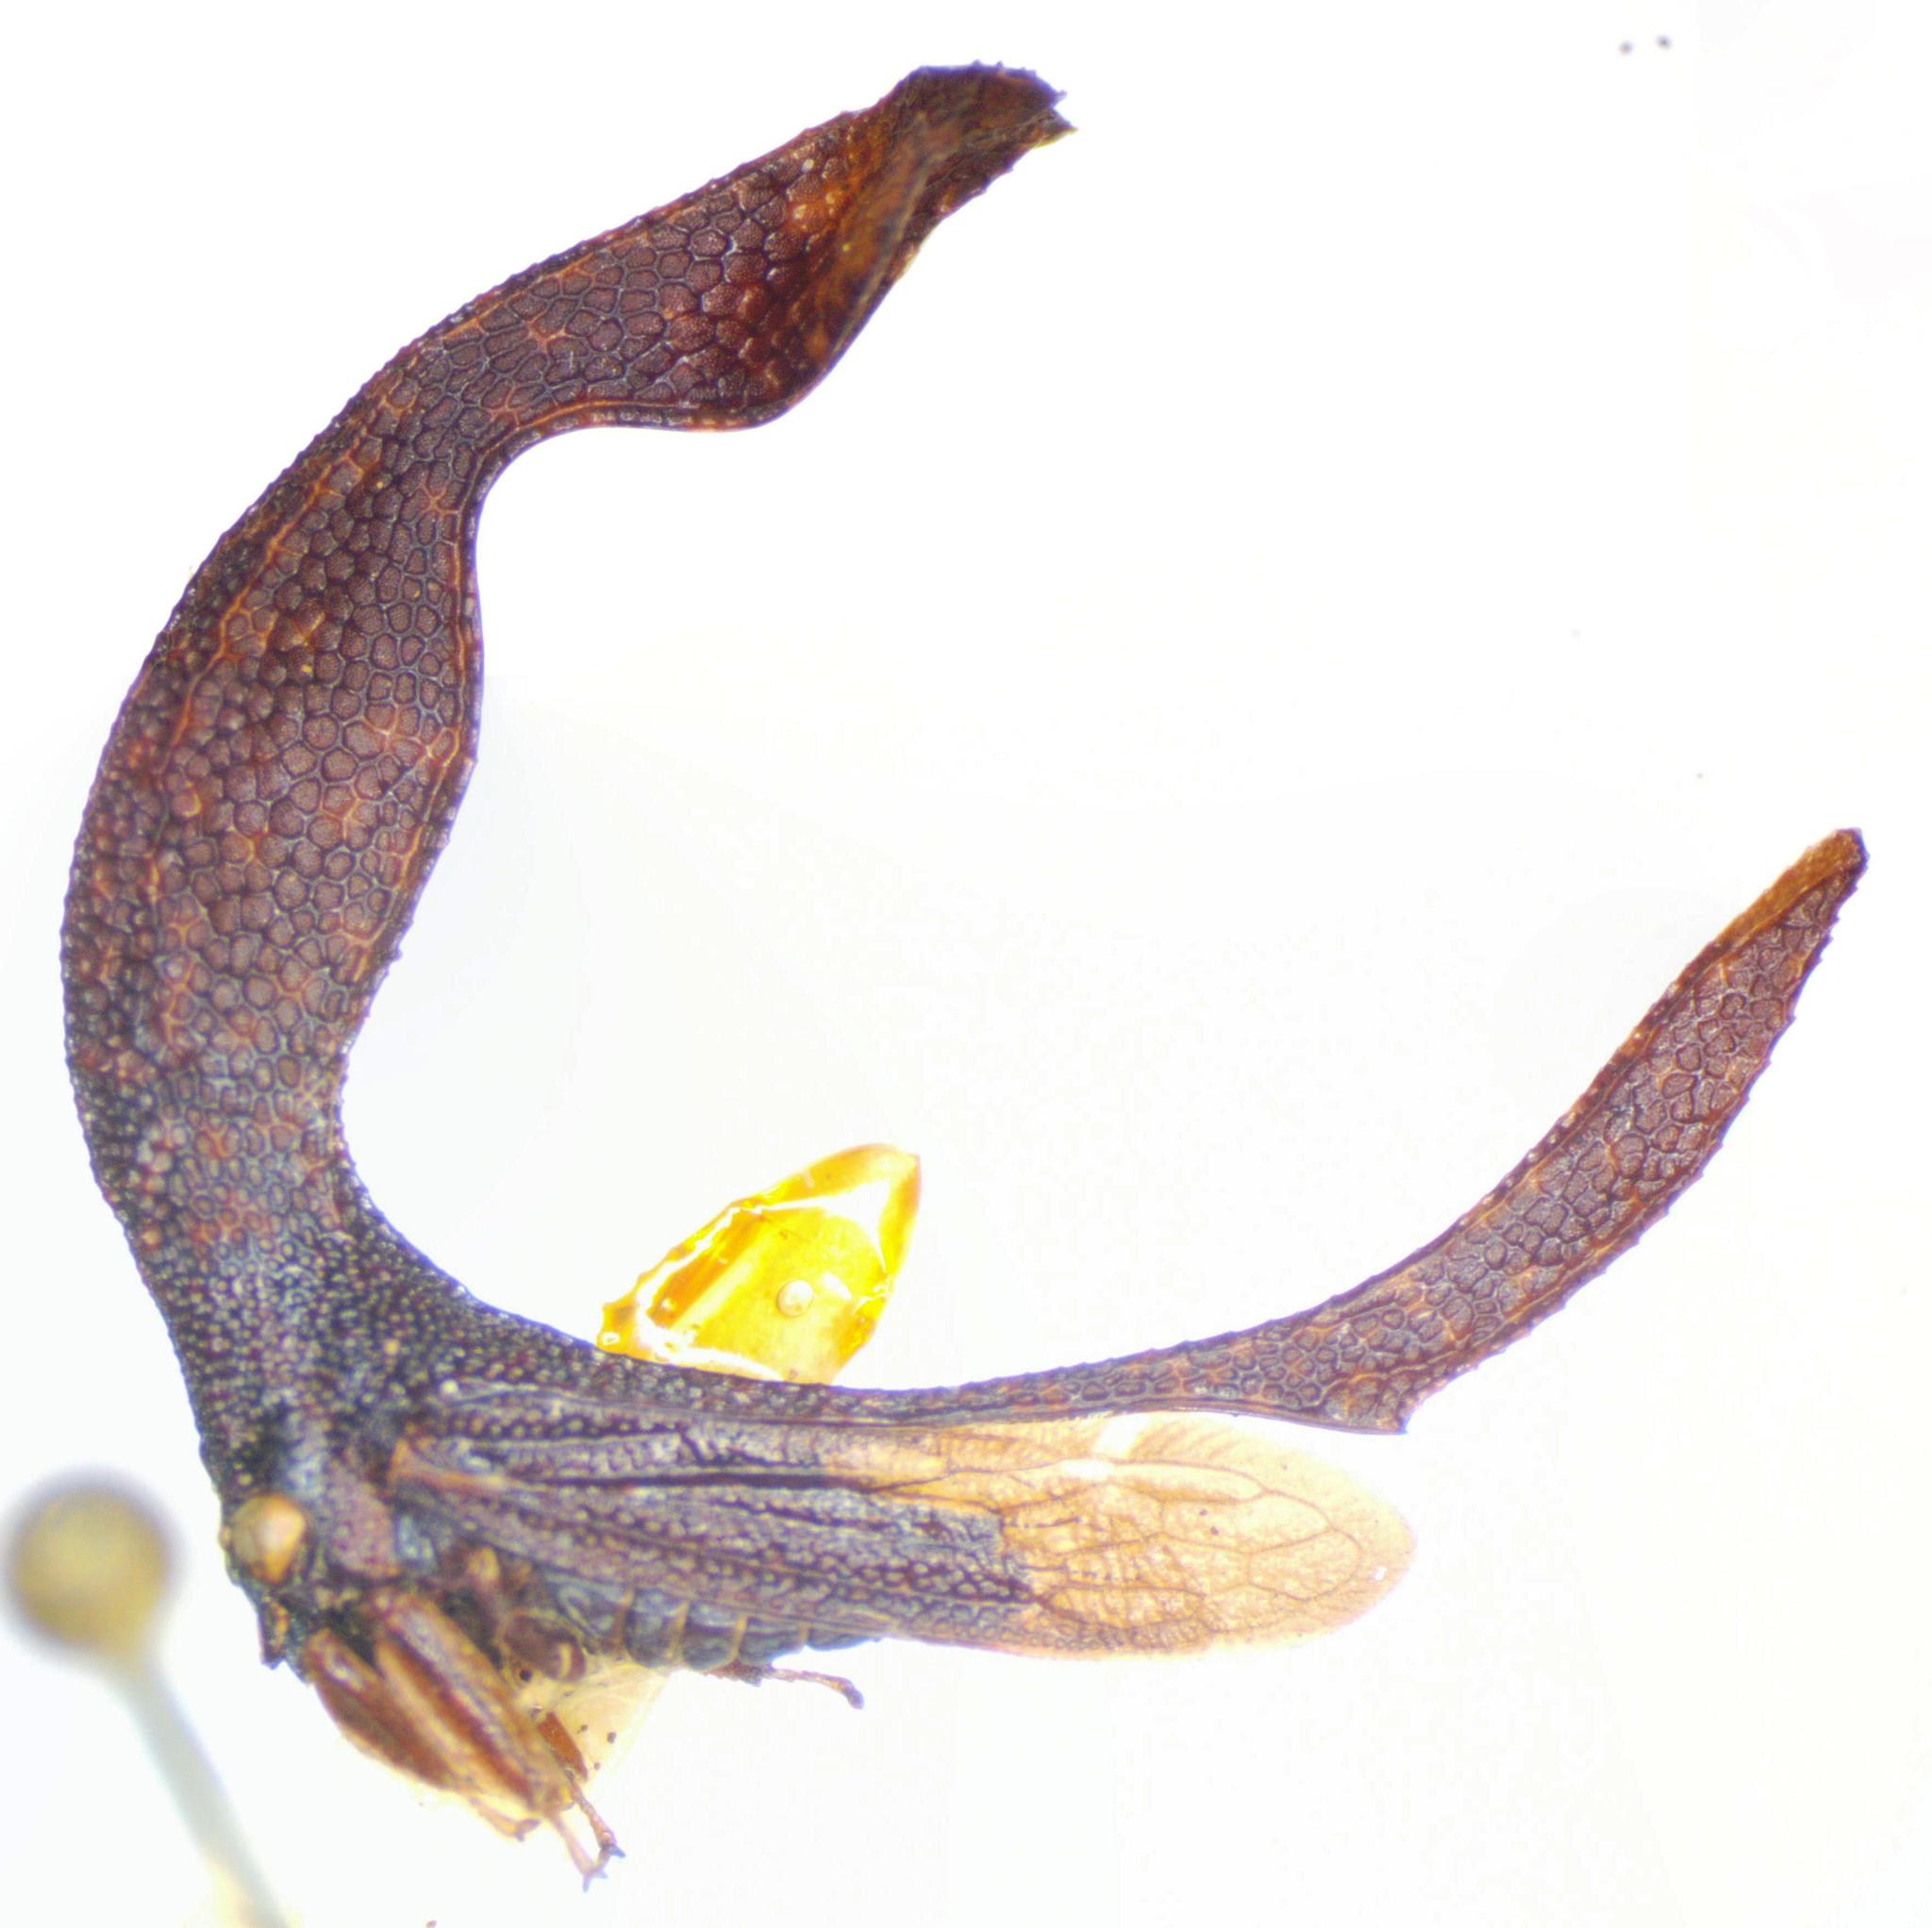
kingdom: Animalia
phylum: Arthropoda
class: Insecta
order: Hemiptera
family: Membracidae
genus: Cladonota
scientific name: Cladonota bolivari
